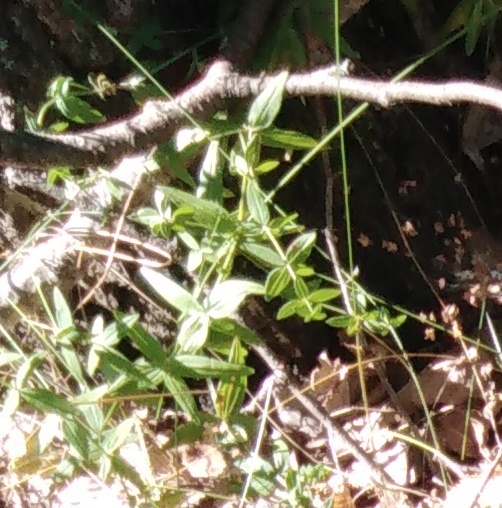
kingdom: Plantae
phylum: Tracheophyta
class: Magnoliopsida
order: Gentianales
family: Rubiaceae
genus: Galium
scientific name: Galium boreale
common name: Northern bedstraw
